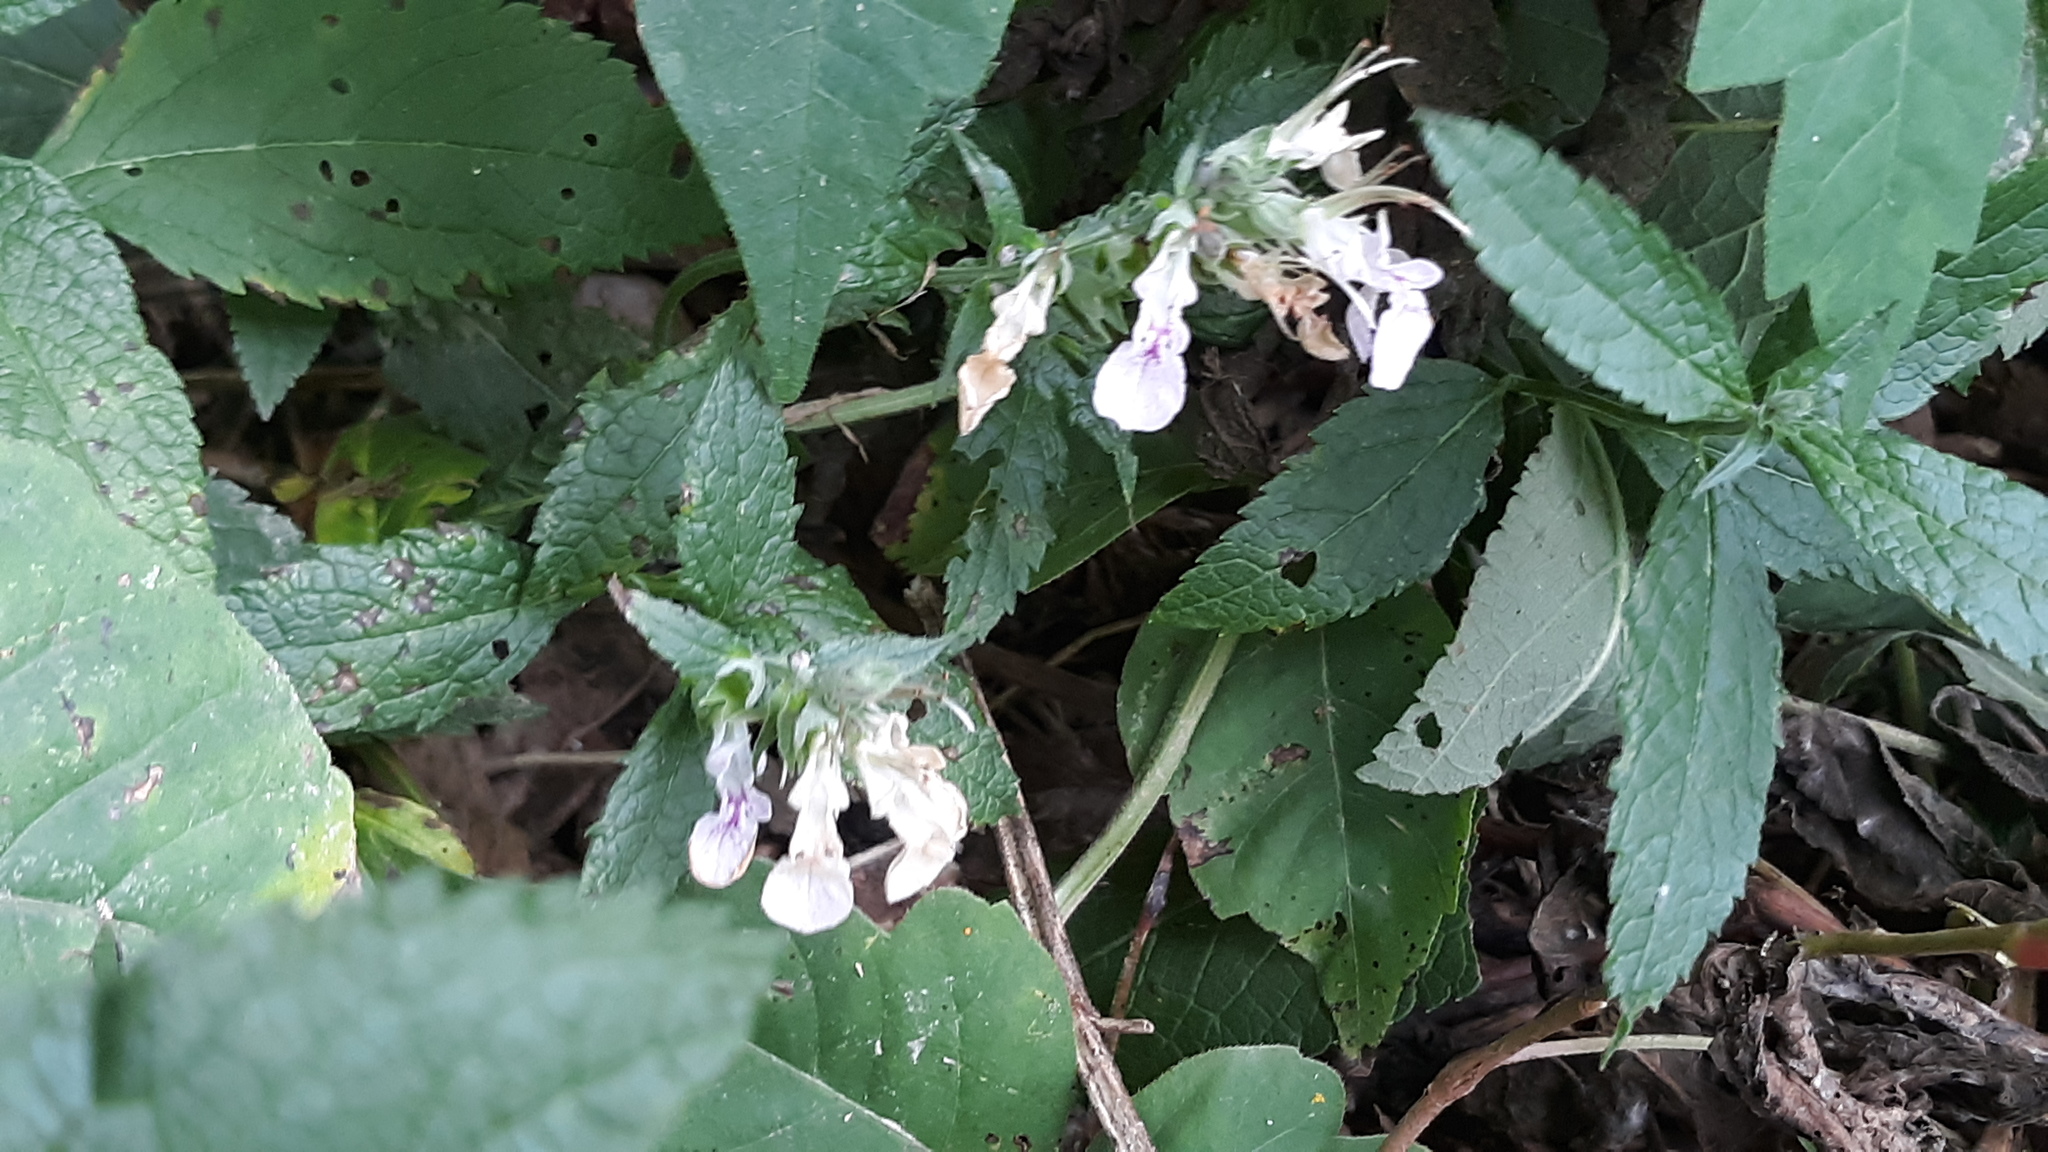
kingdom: Plantae
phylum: Tracheophyta
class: Magnoliopsida
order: Lamiales
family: Lamiaceae
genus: Teucrium
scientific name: Teucrium canadense
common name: American germander
